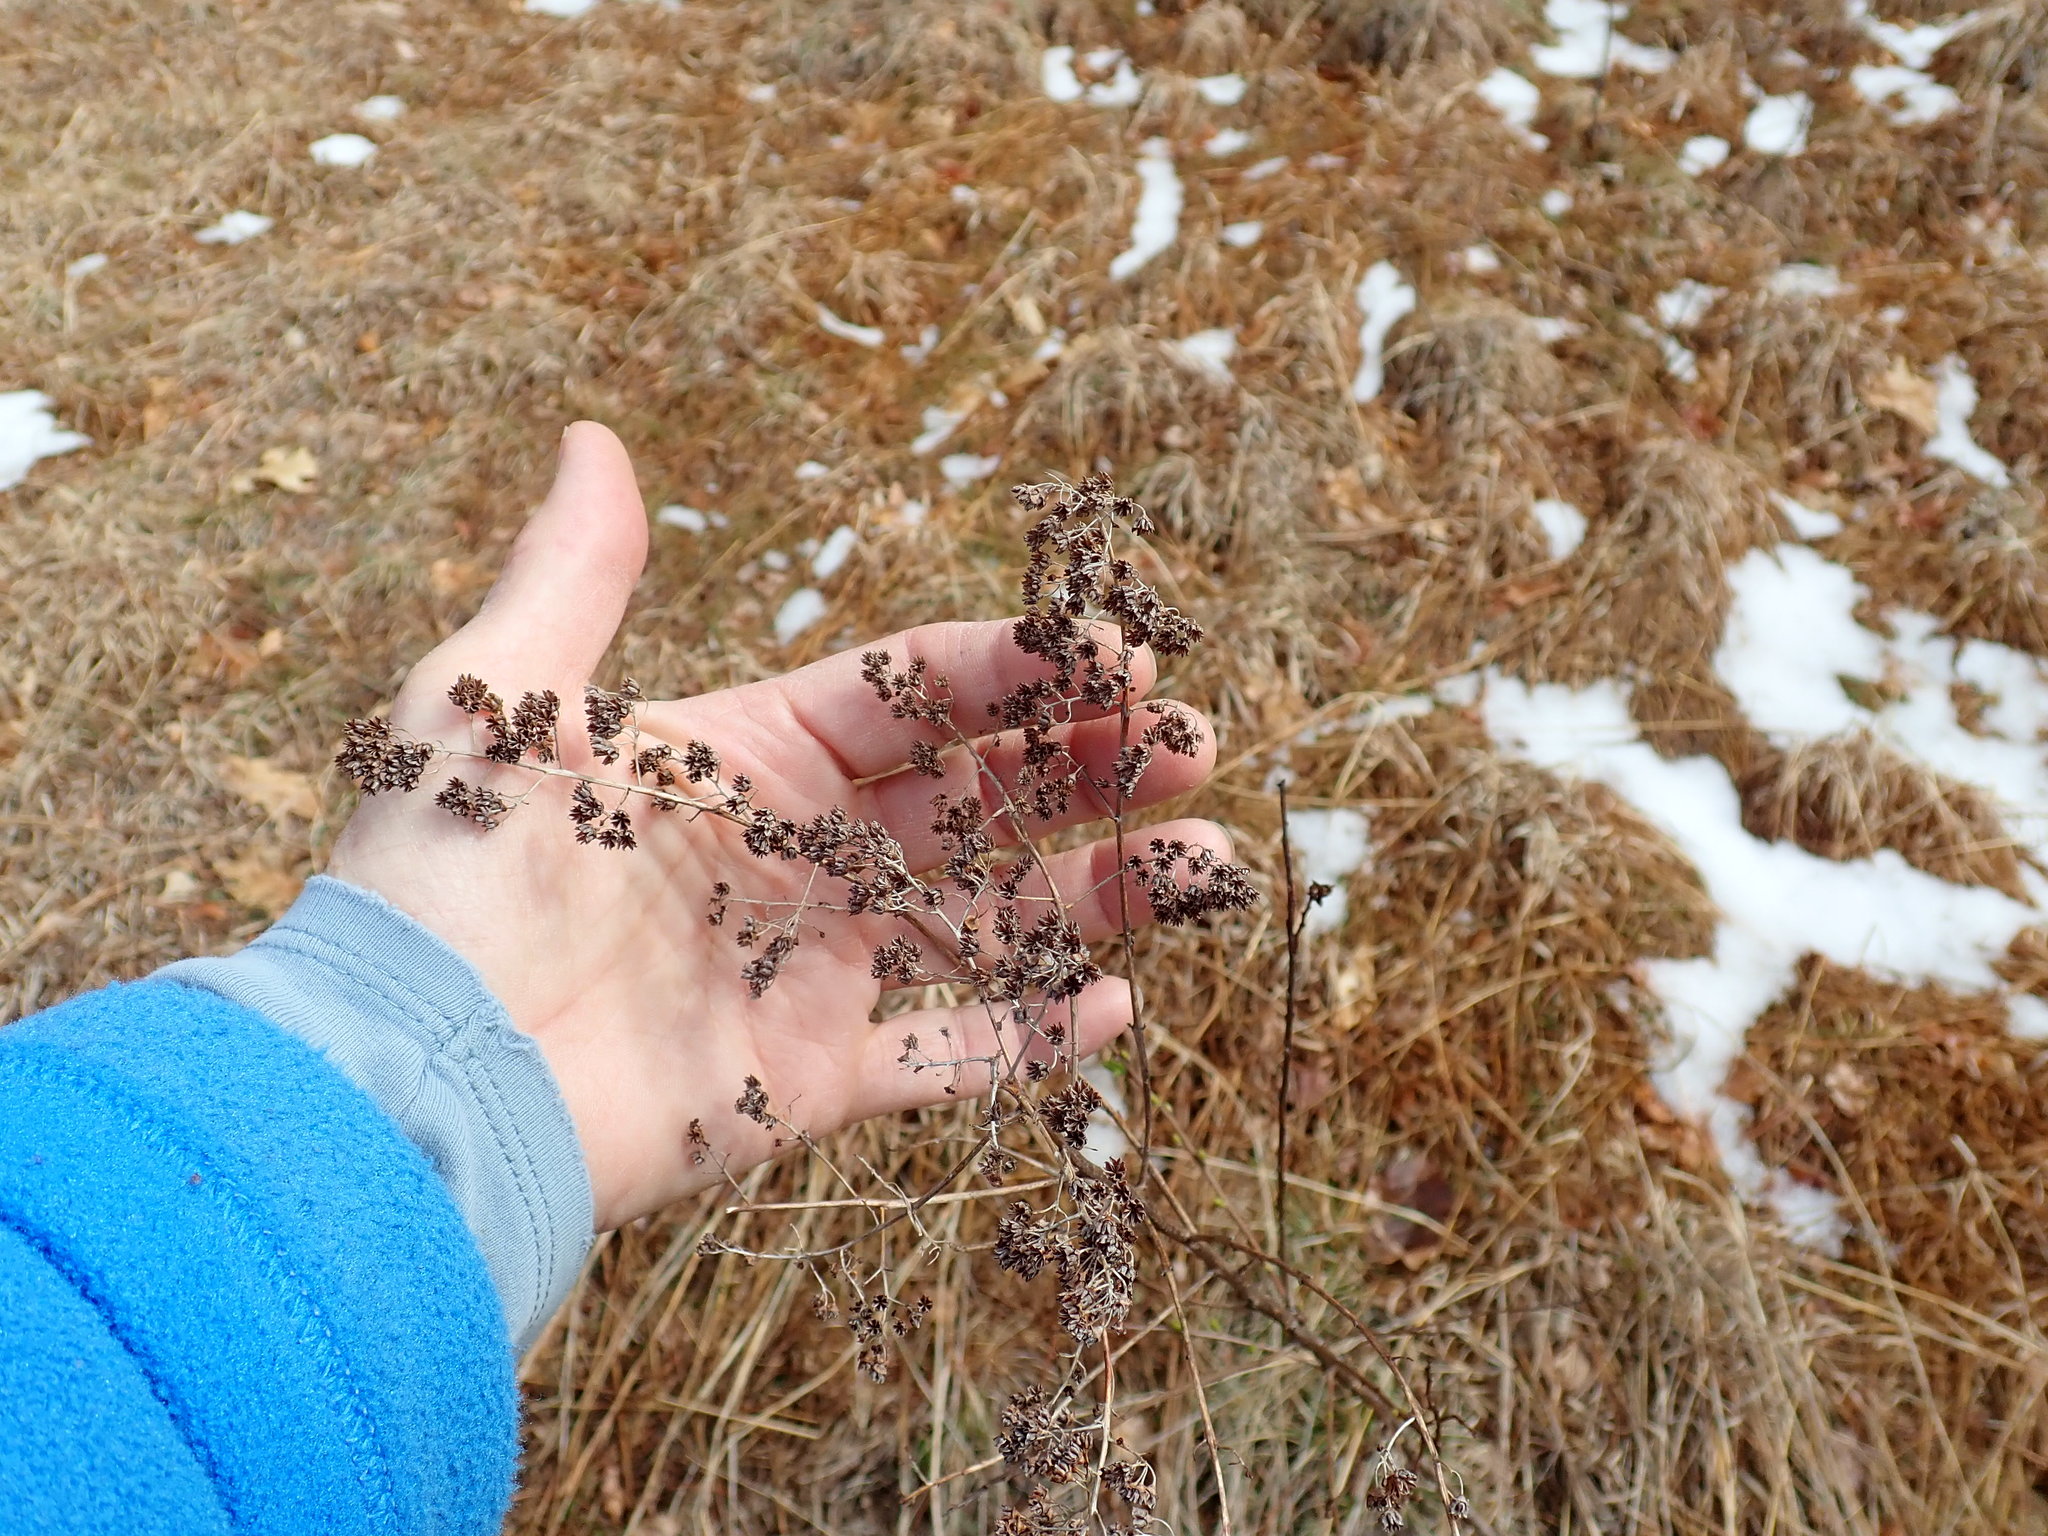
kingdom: Plantae
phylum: Tracheophyta
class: Magnoliopsida
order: Rosales
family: Rosaceae
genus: Spiraea
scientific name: Spiraea alba
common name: Pale bridewort
